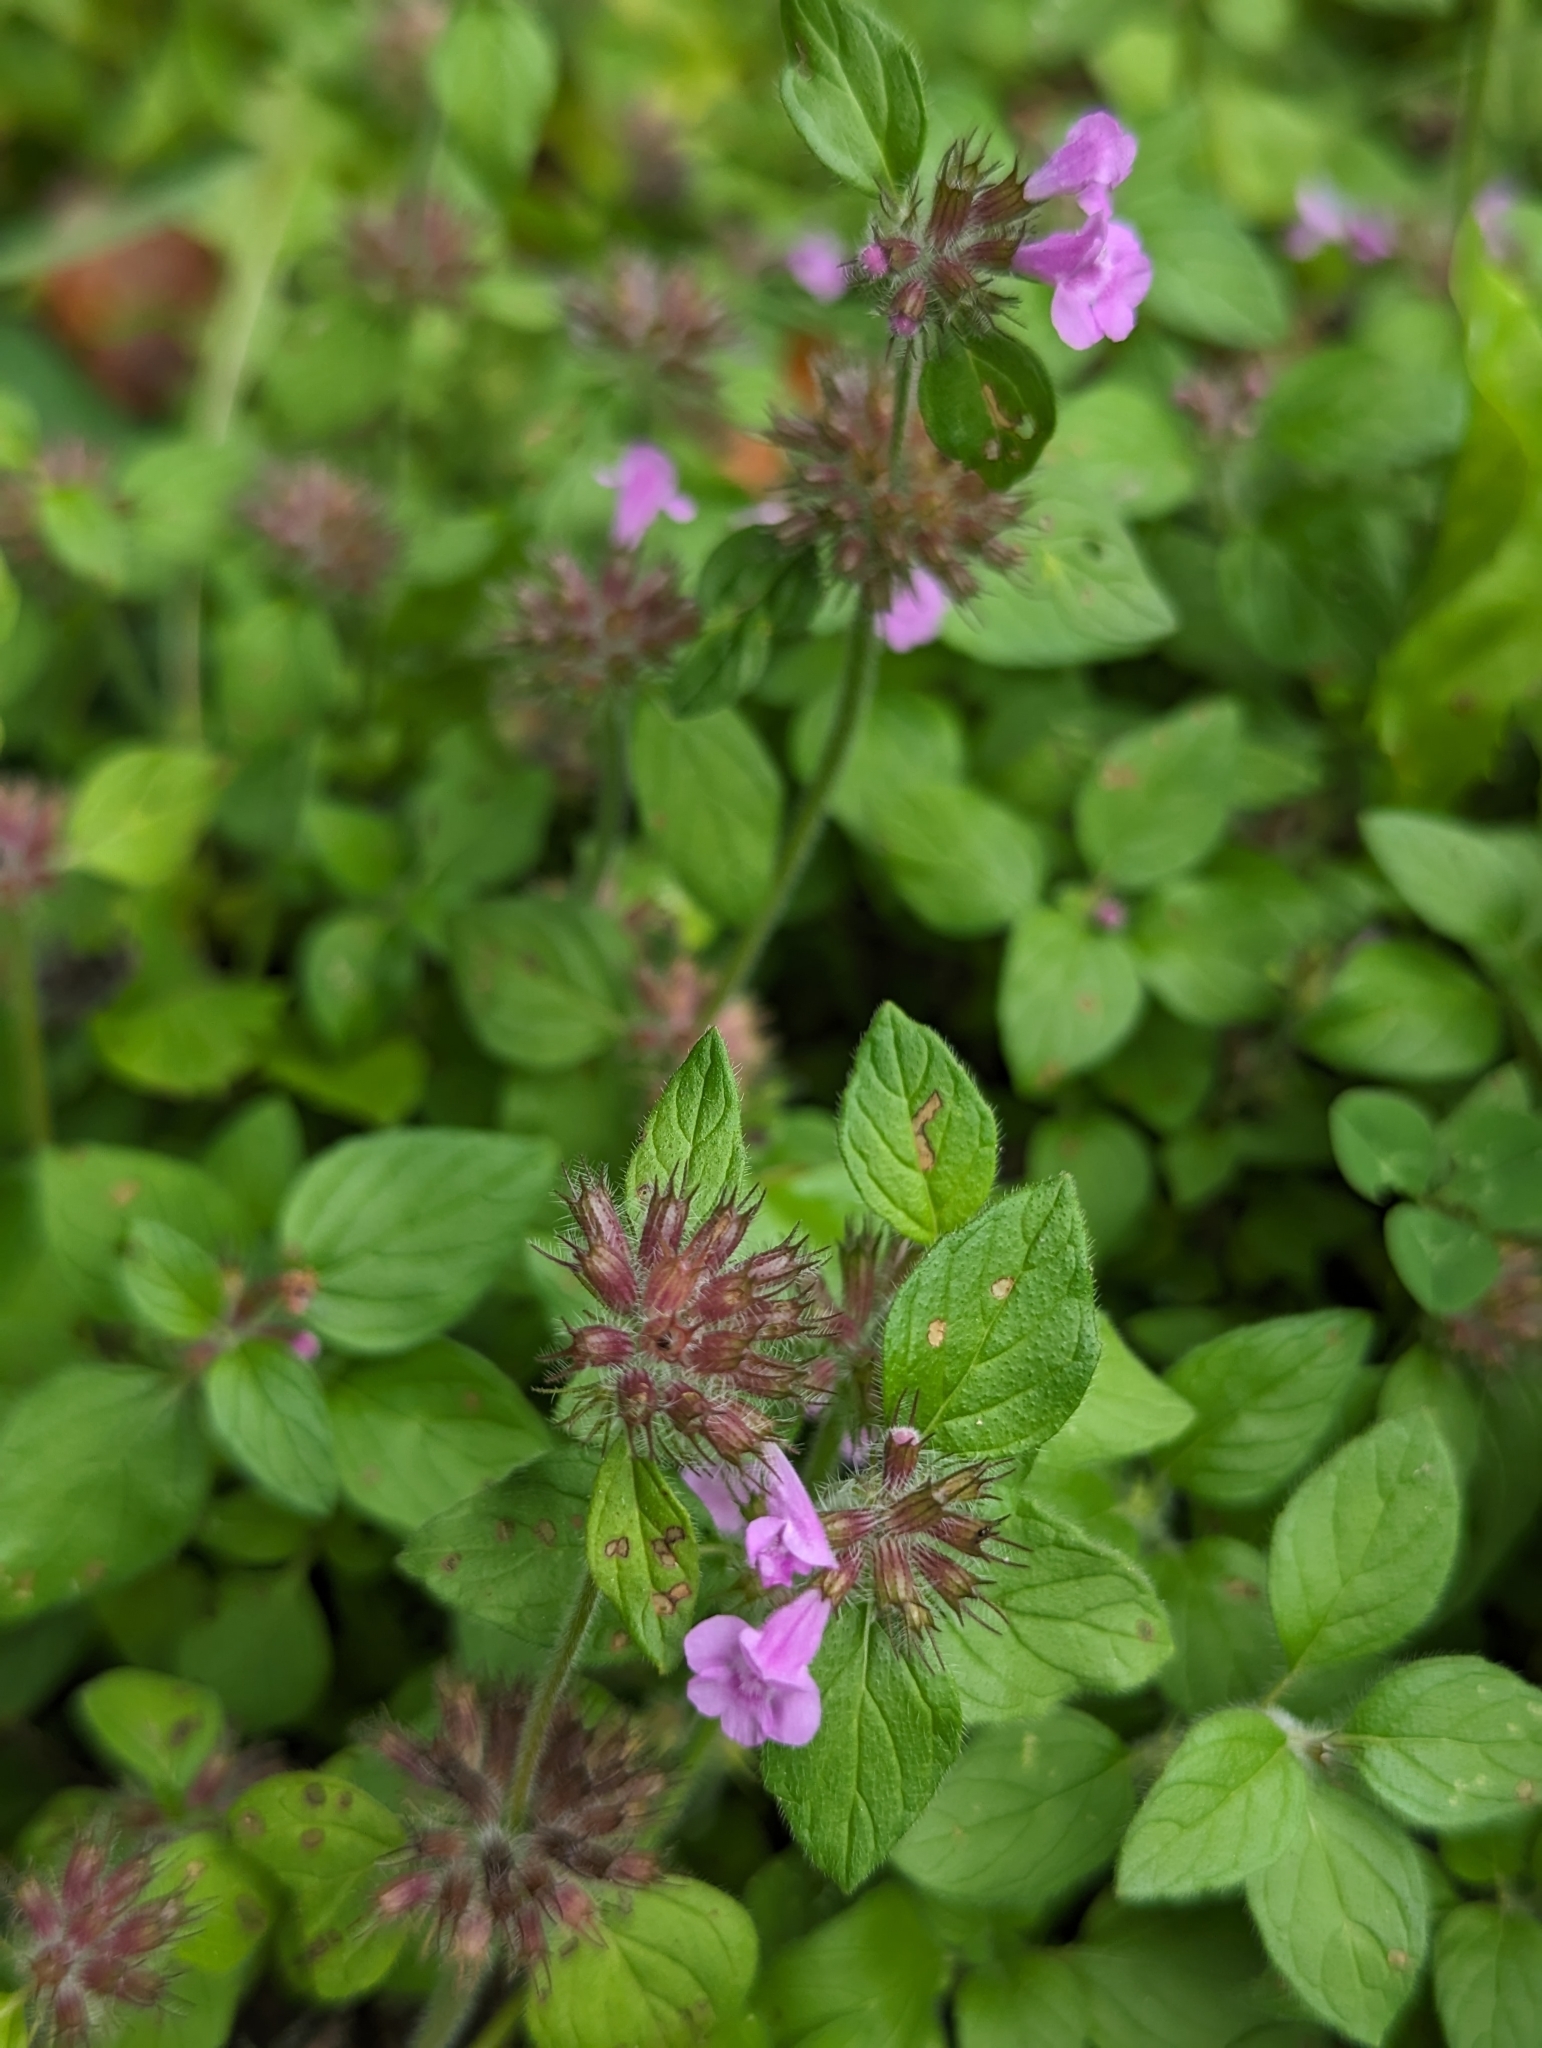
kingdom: Plantae
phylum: Tracheophyta
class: Magnoliopsida
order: Lamiales
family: Lamiaceae
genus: Clinopodium
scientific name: Clinopodium vulgare
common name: Wild basil
